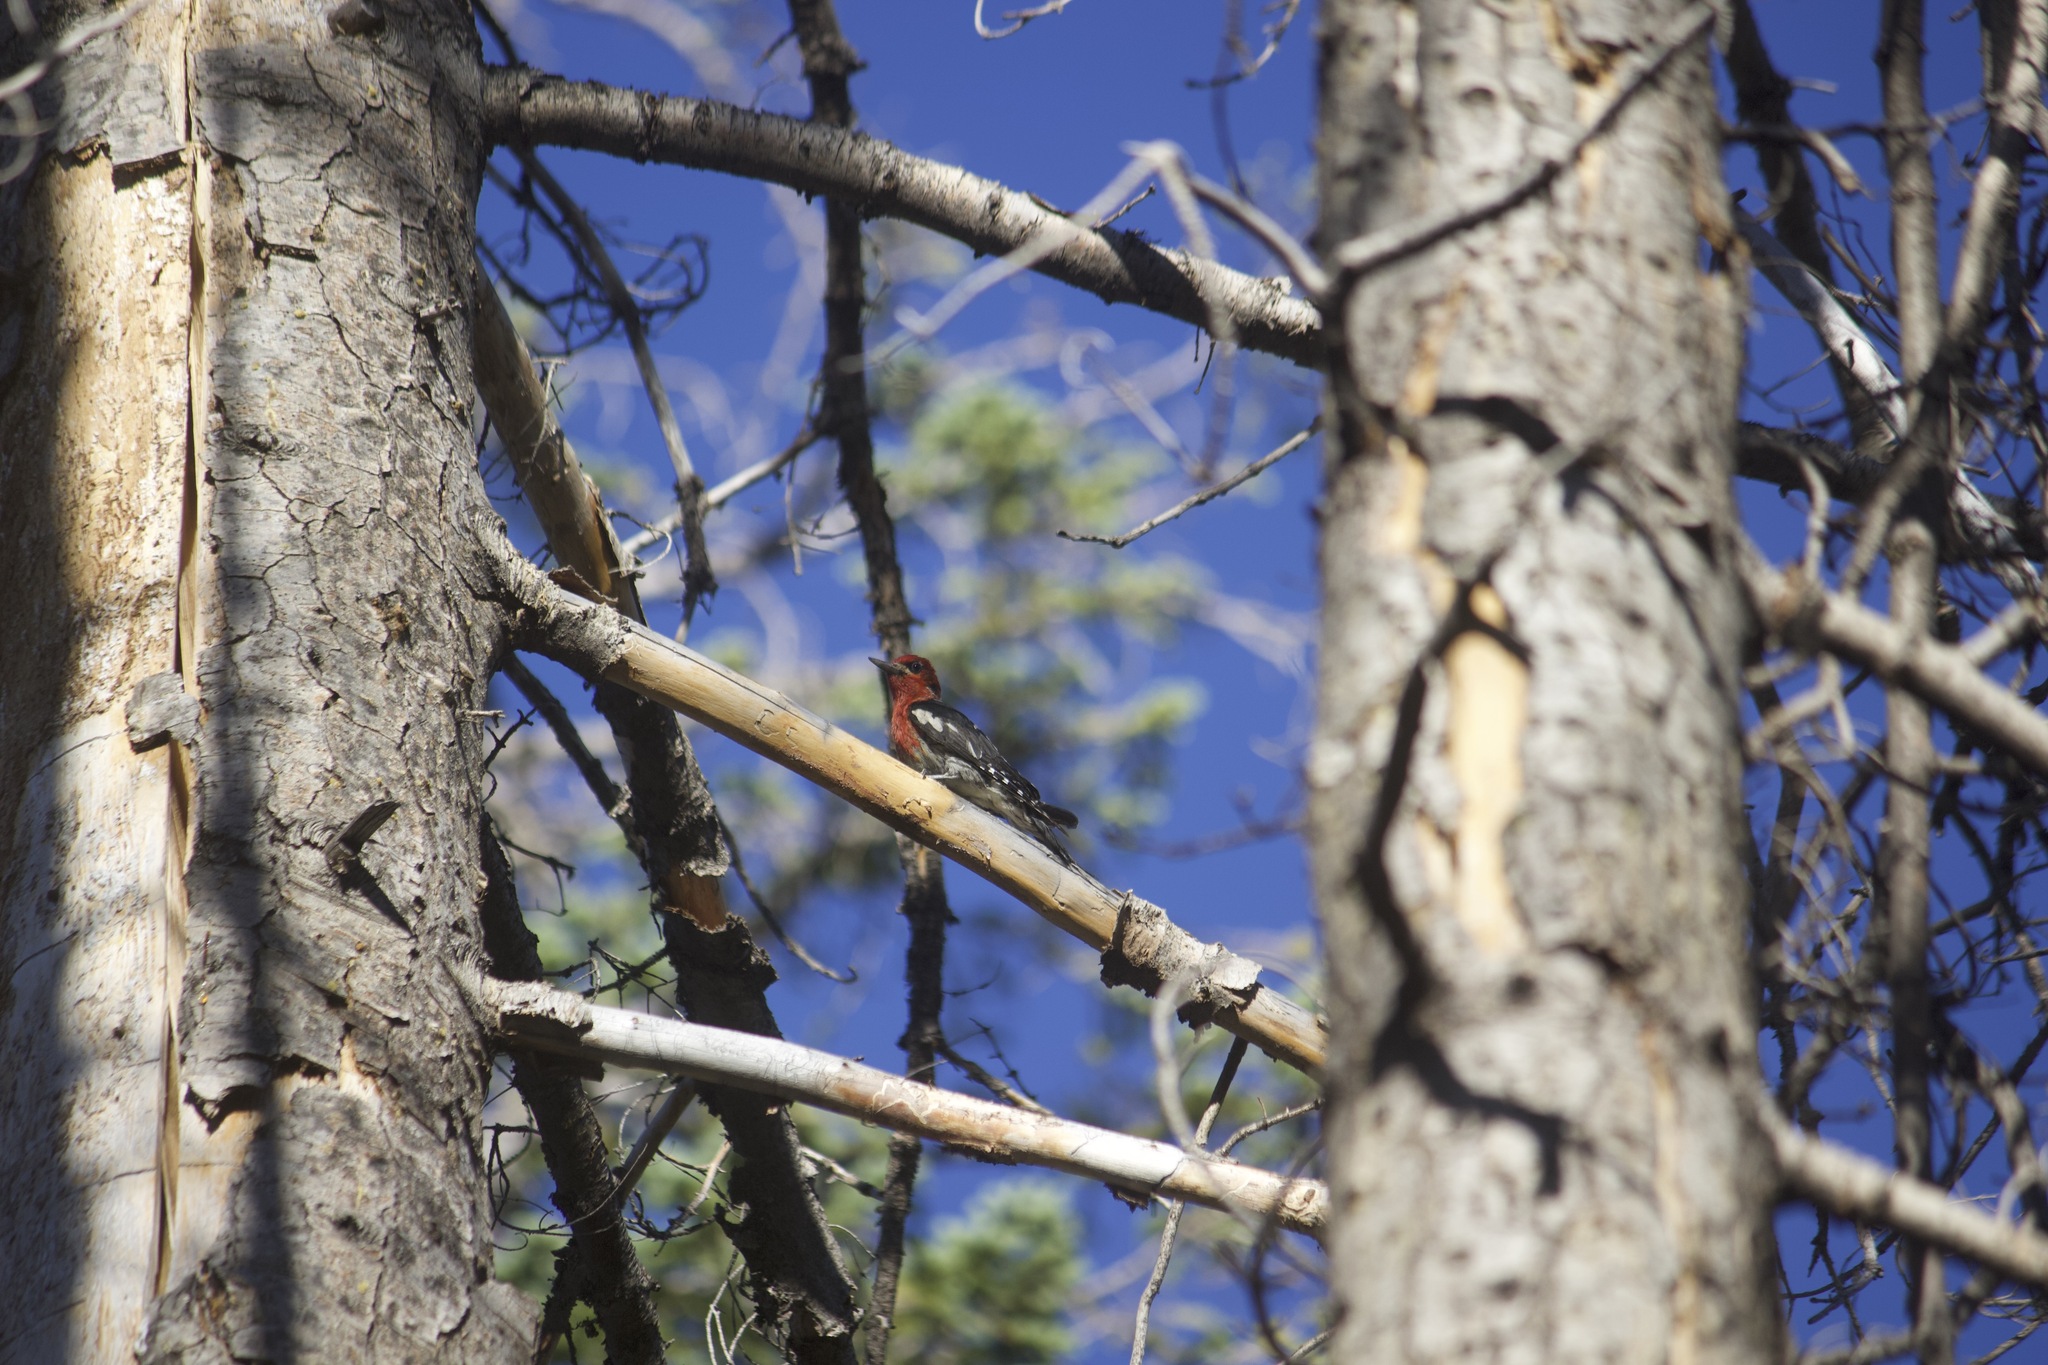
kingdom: Animalia
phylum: Chordata
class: Aves
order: Piciformes
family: Picidae
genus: Sphyrapicus
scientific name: Sphyrapicus ruber
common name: Red-breasted sapsucker
